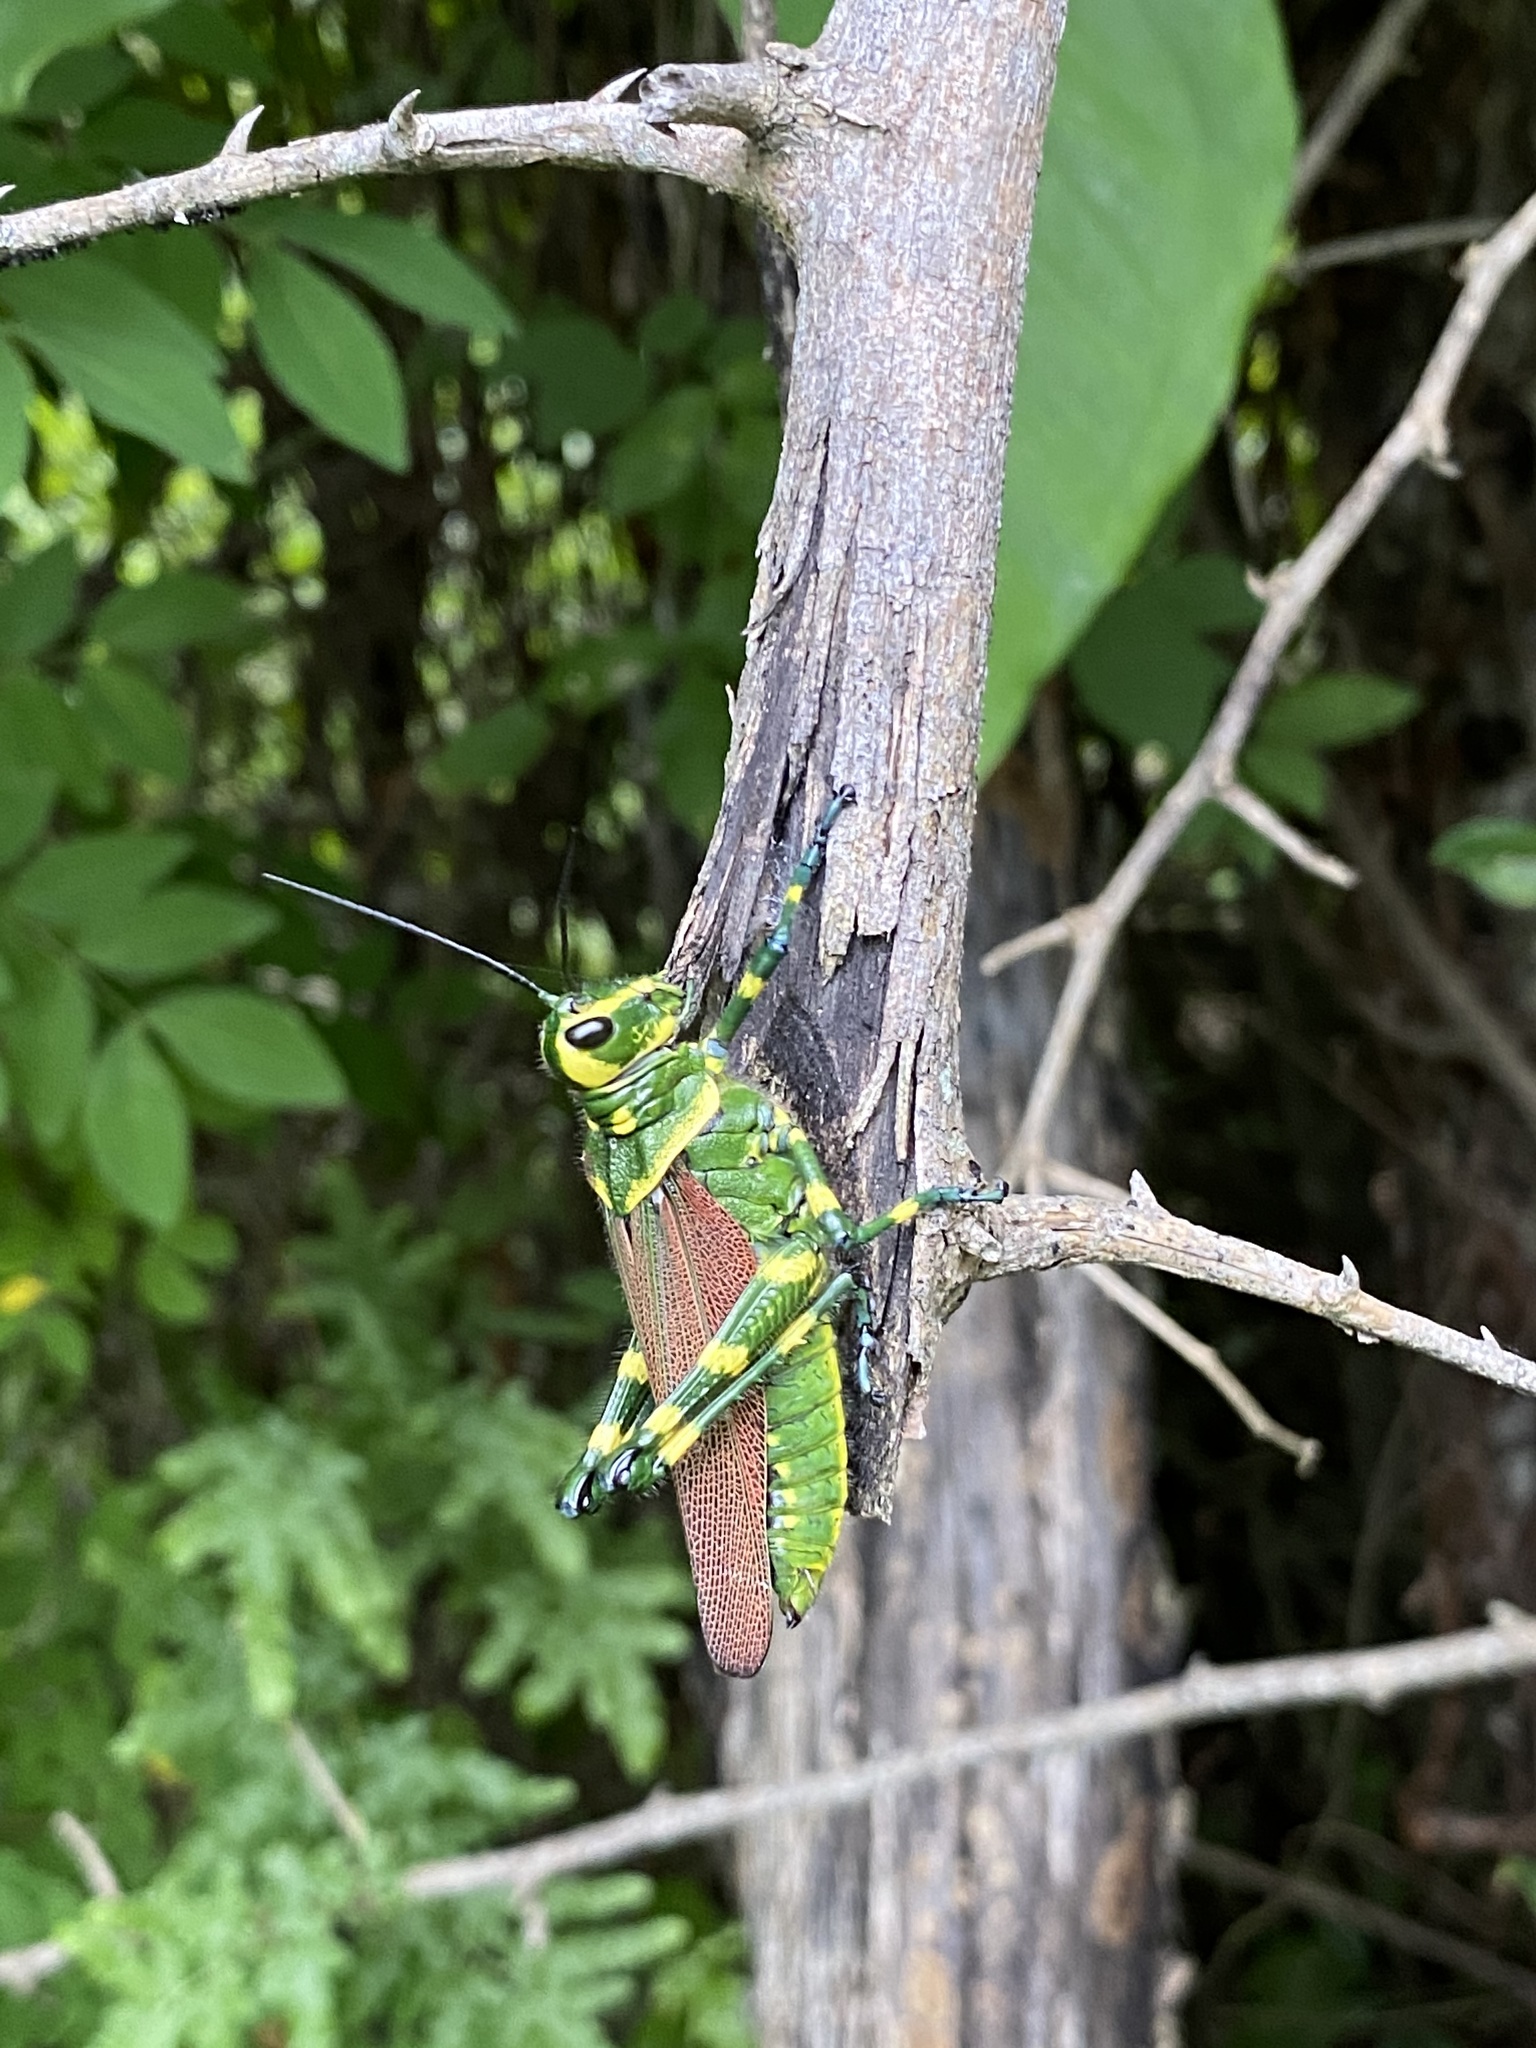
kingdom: Animalia
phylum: Arthropoda
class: Insecta
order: Orthoptera
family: Romaleidae
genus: Chromacris
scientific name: Chromacris miles
